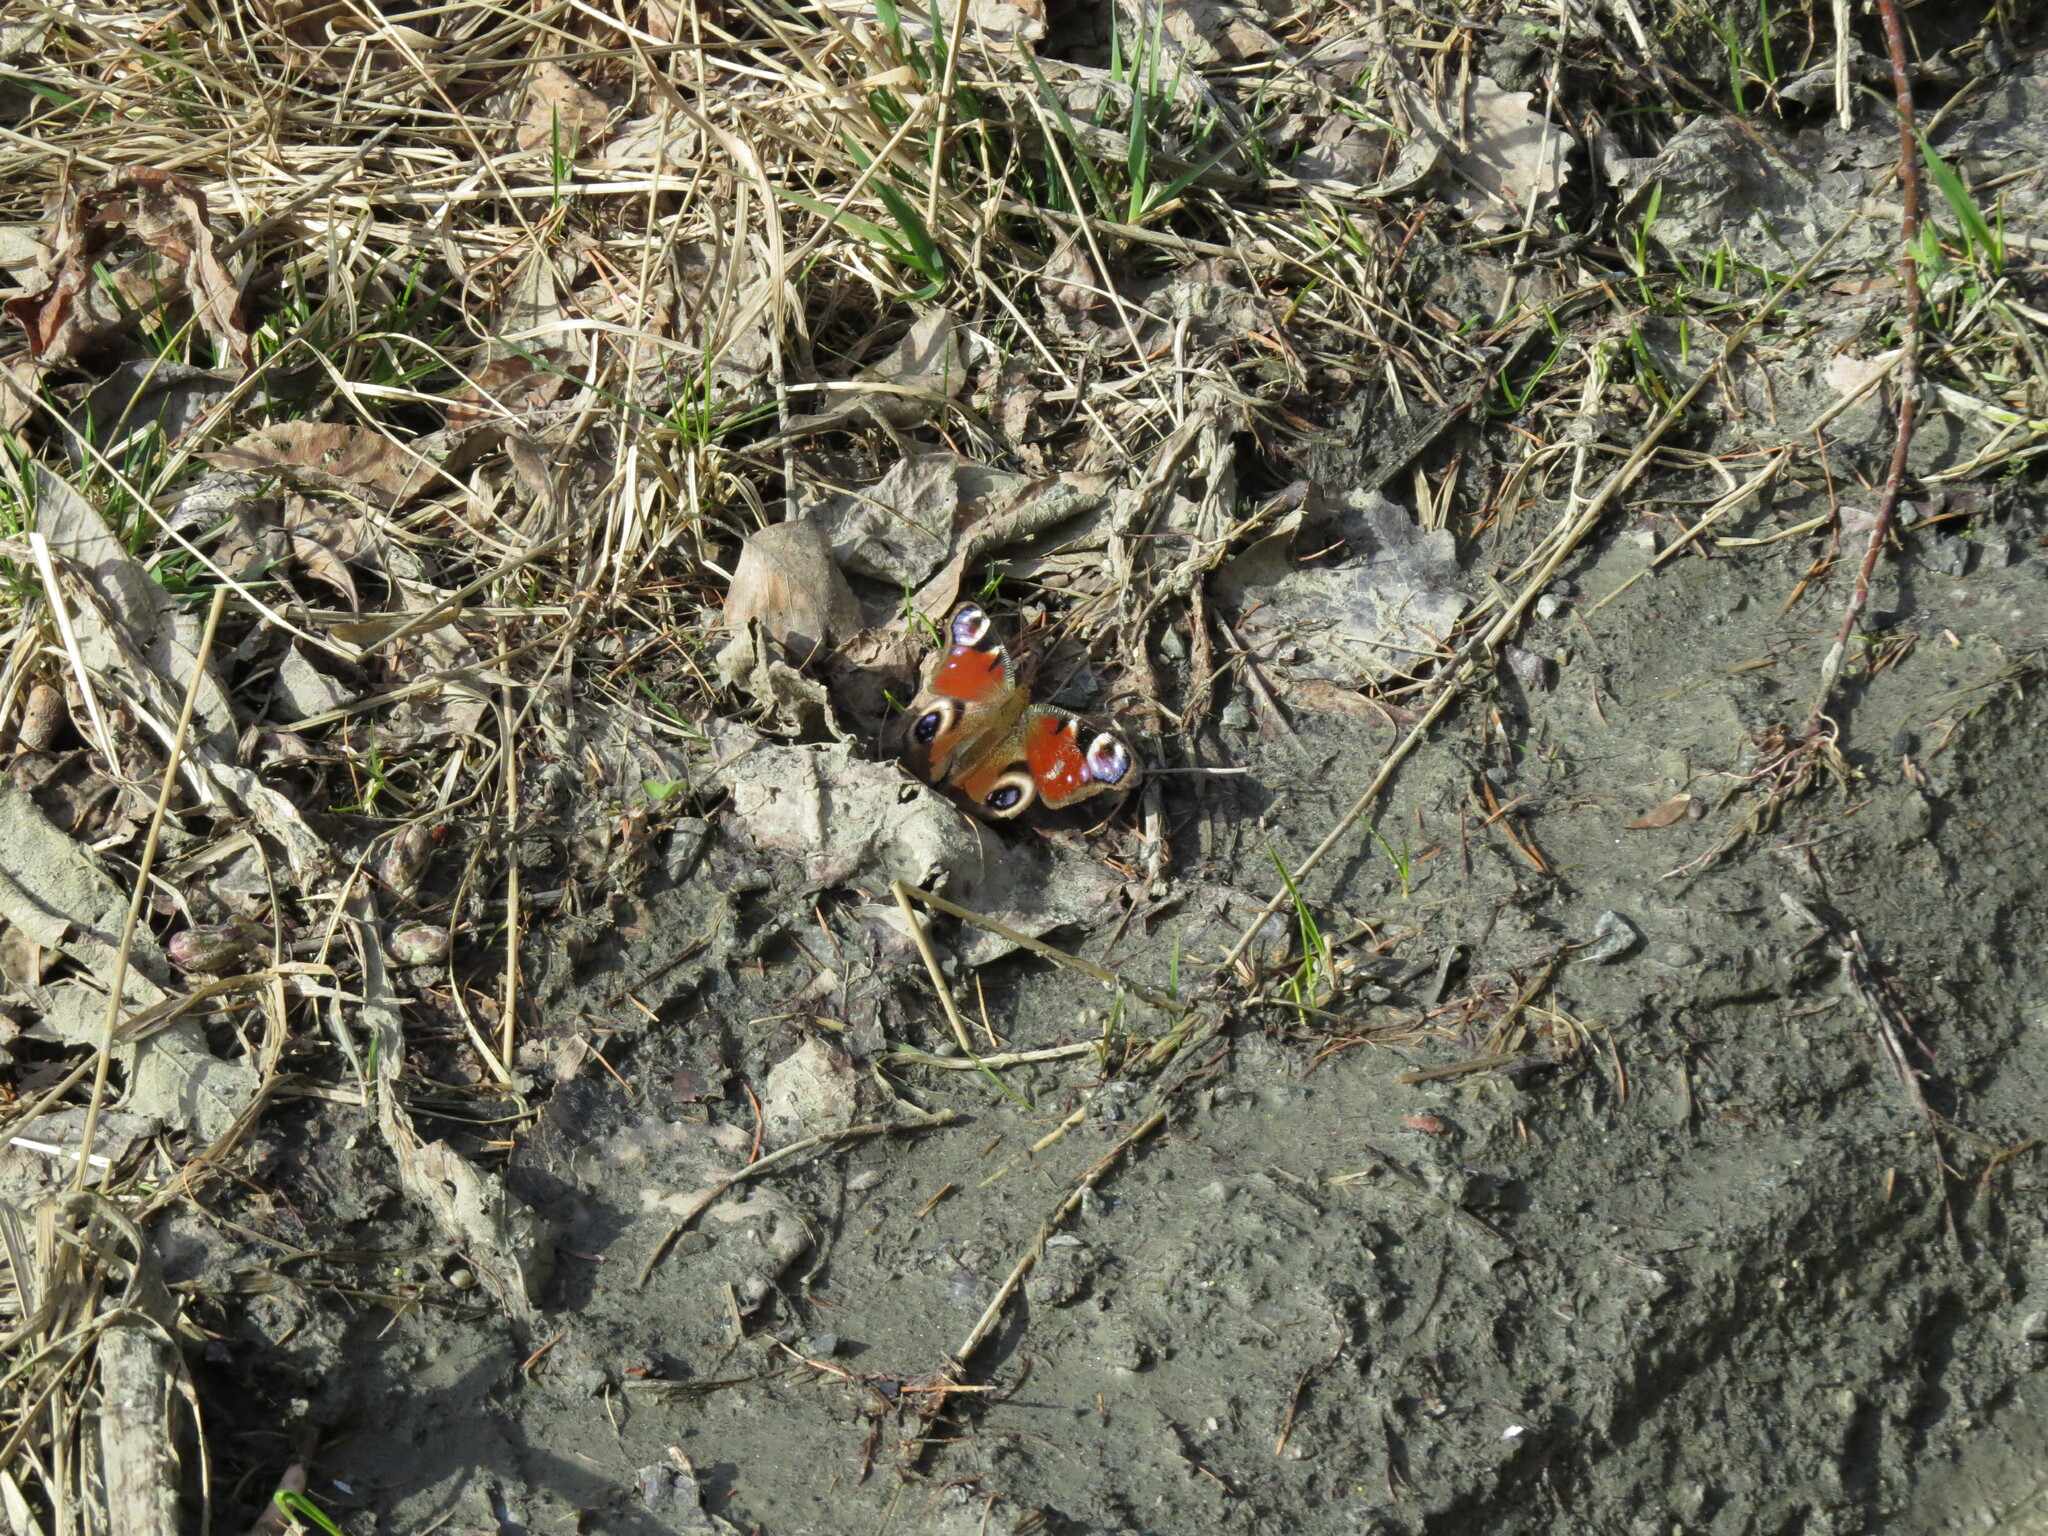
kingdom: Animalia
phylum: Arthropoda
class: Insecta
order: Lepidoptera
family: Nymphalidae
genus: Aglais
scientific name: Aglais io
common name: Peacock
